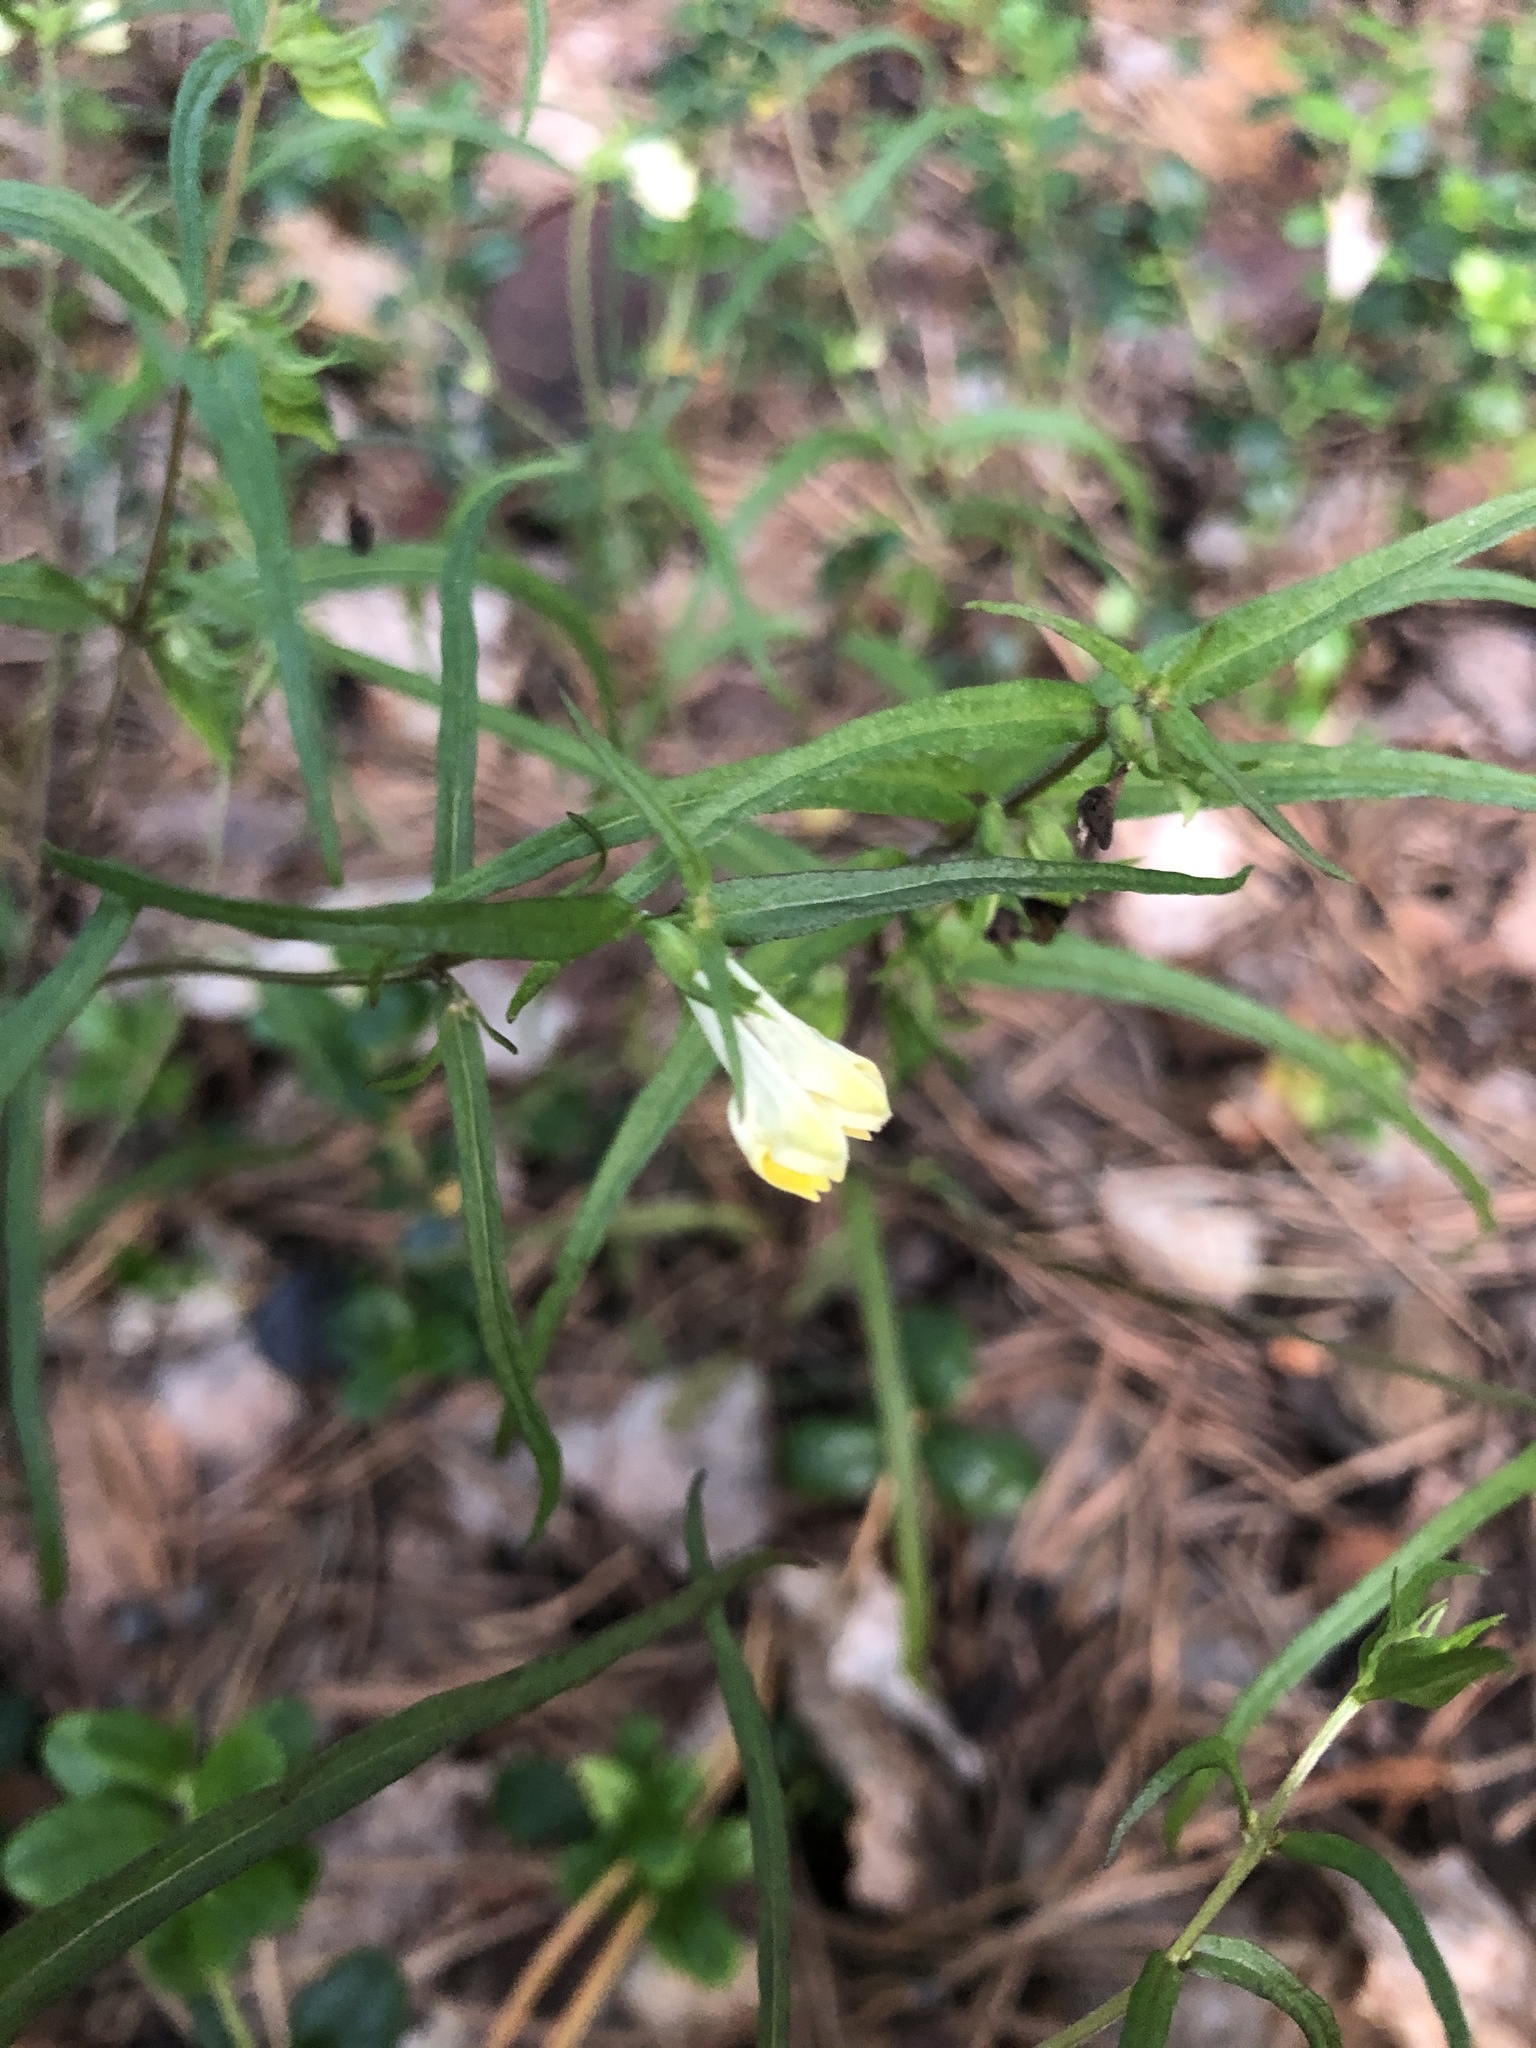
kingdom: Plantae
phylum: Tracheophyta
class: Magnoliopsida
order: Lamiales
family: Orobanchaceae
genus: Melampyrum
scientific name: Melampyrum pratense
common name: Common cow-wheat
